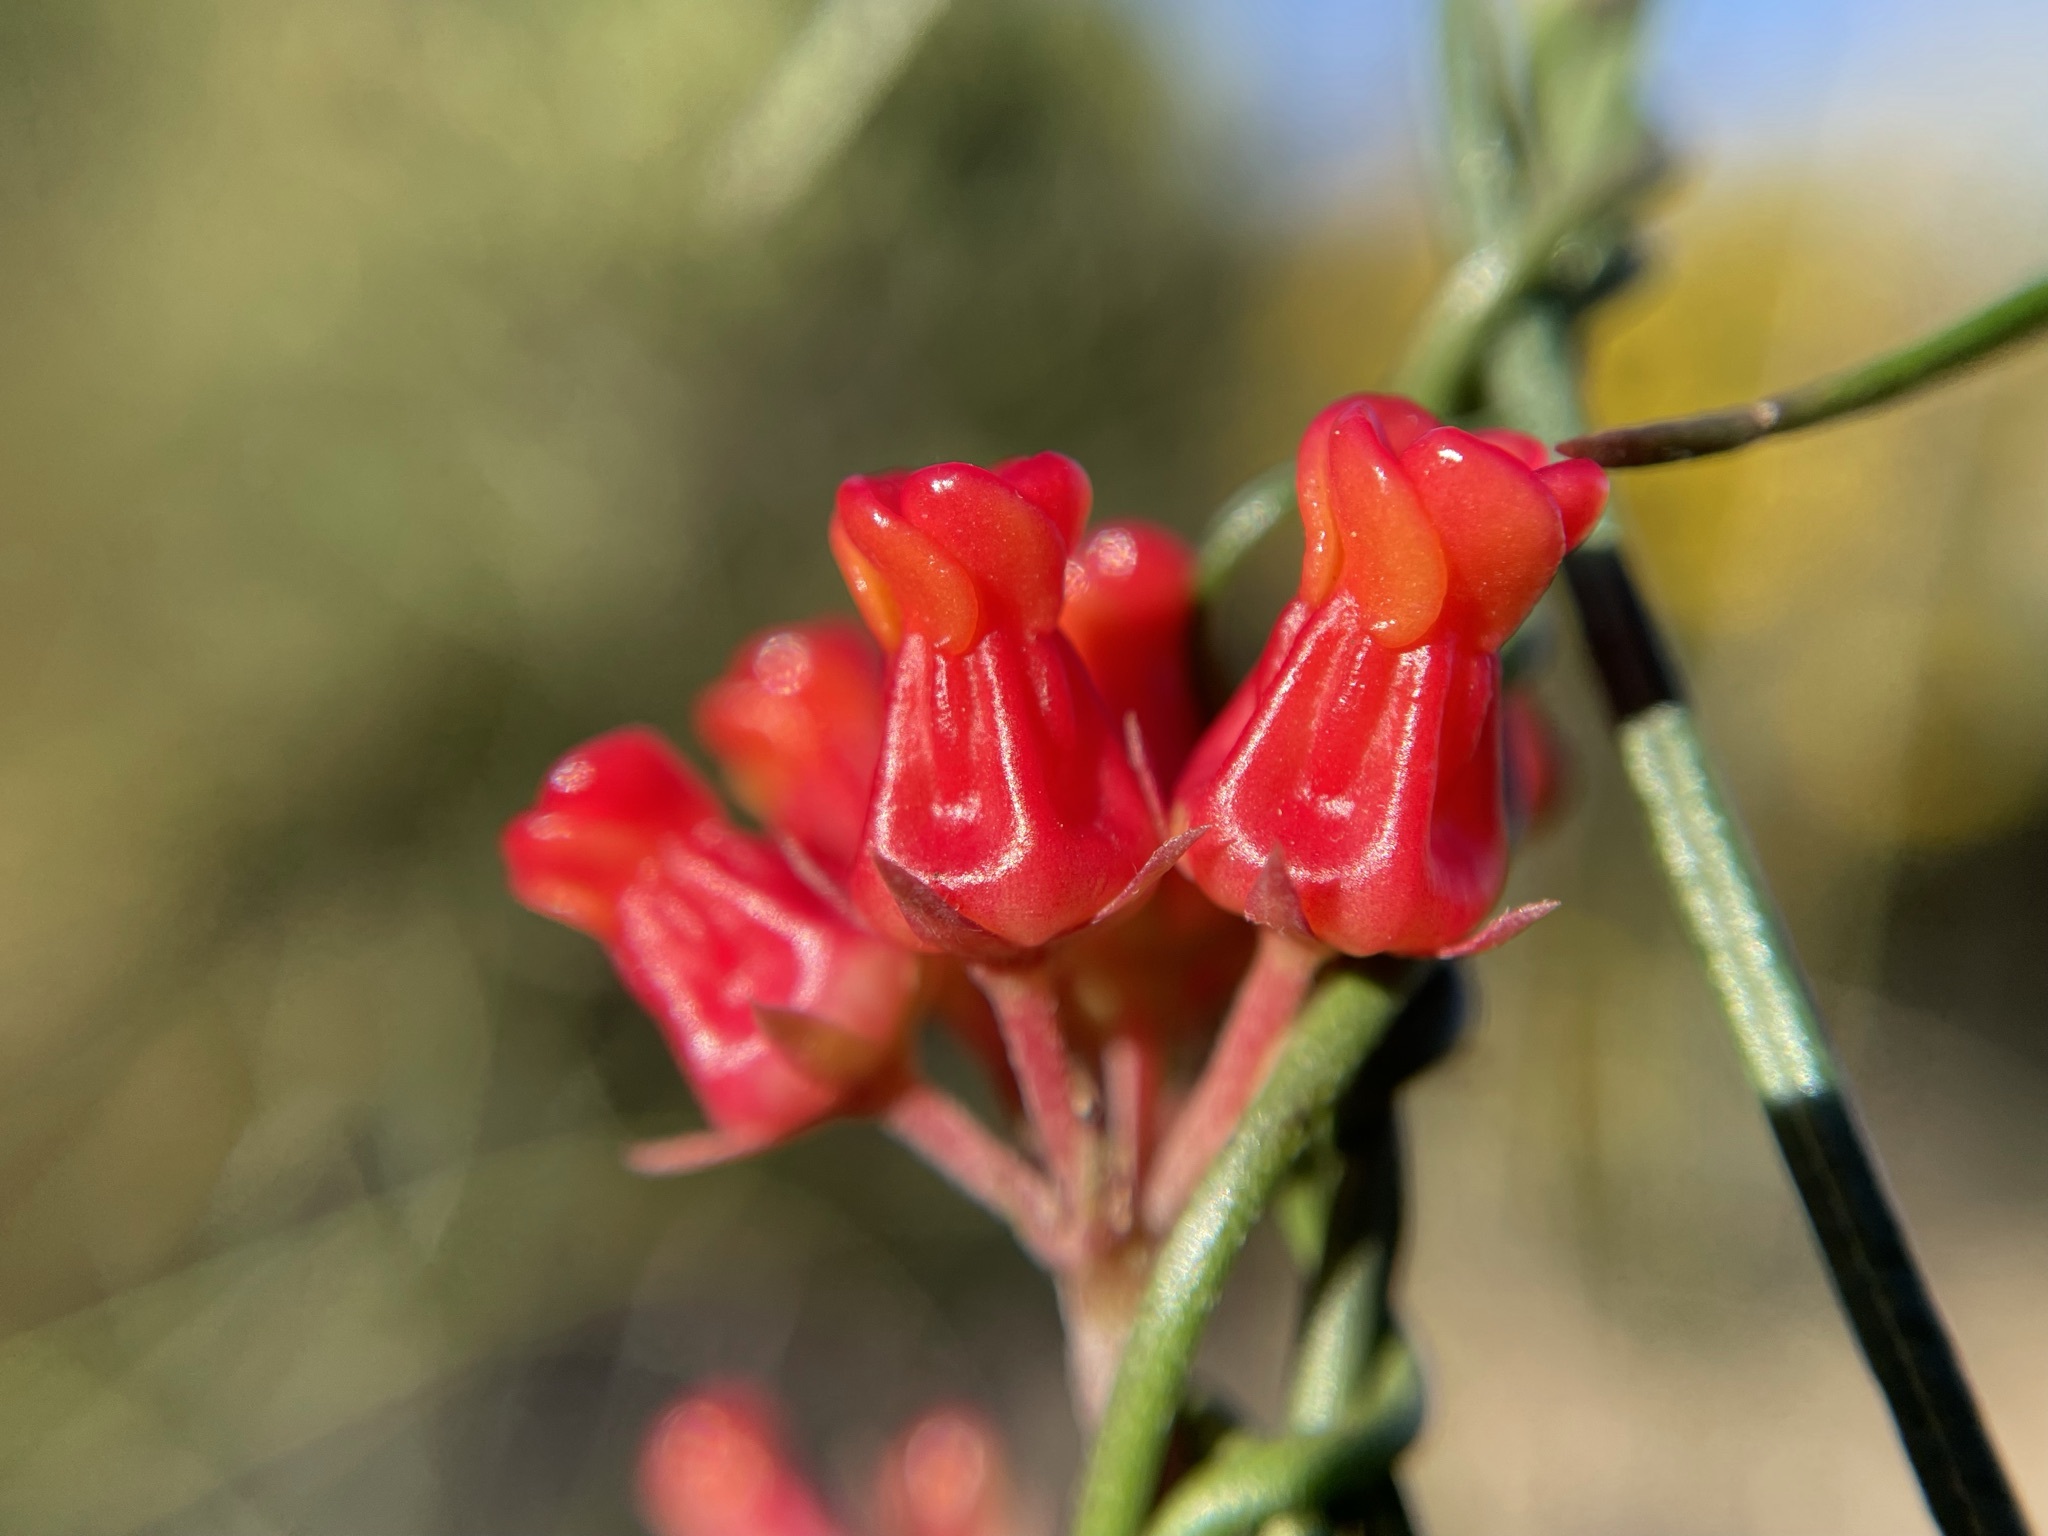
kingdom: Plantae
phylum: Tracheophyta
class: Magnoliopsida
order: Gentianales
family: Apocynaceae
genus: Microloma
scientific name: Microloma tenuifolium
